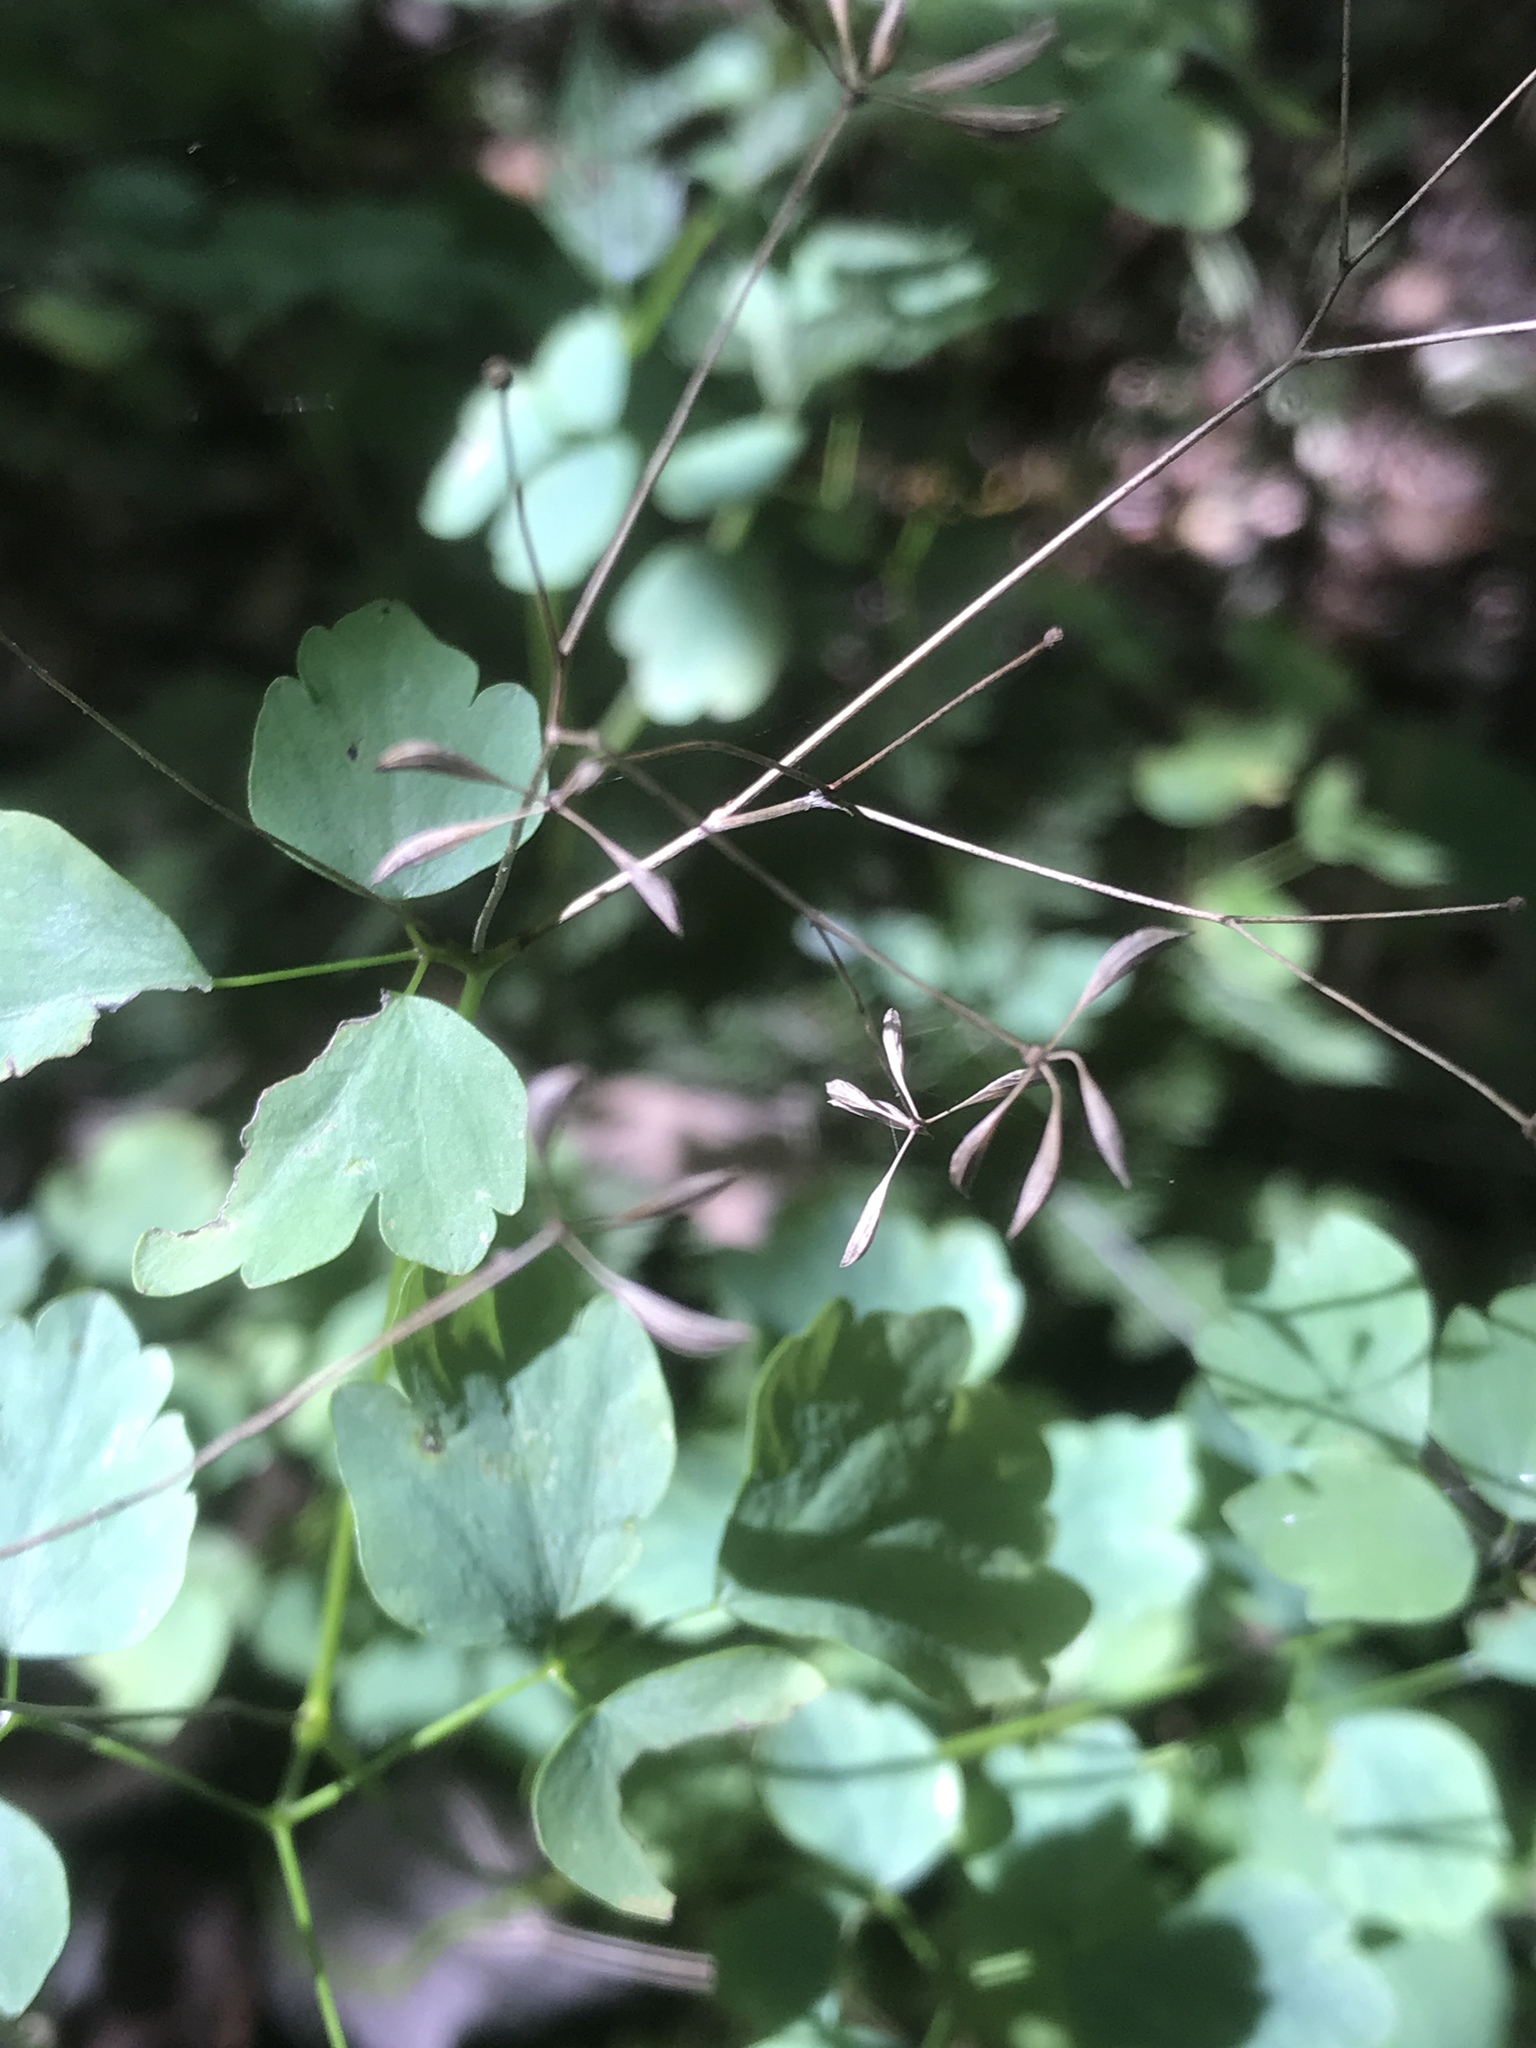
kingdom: Plantae
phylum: Tracheophyta
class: Magnoliopsida
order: Ranunculales
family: Ranunculaceae
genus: Thalictrum
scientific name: Thalictrum clavatum
